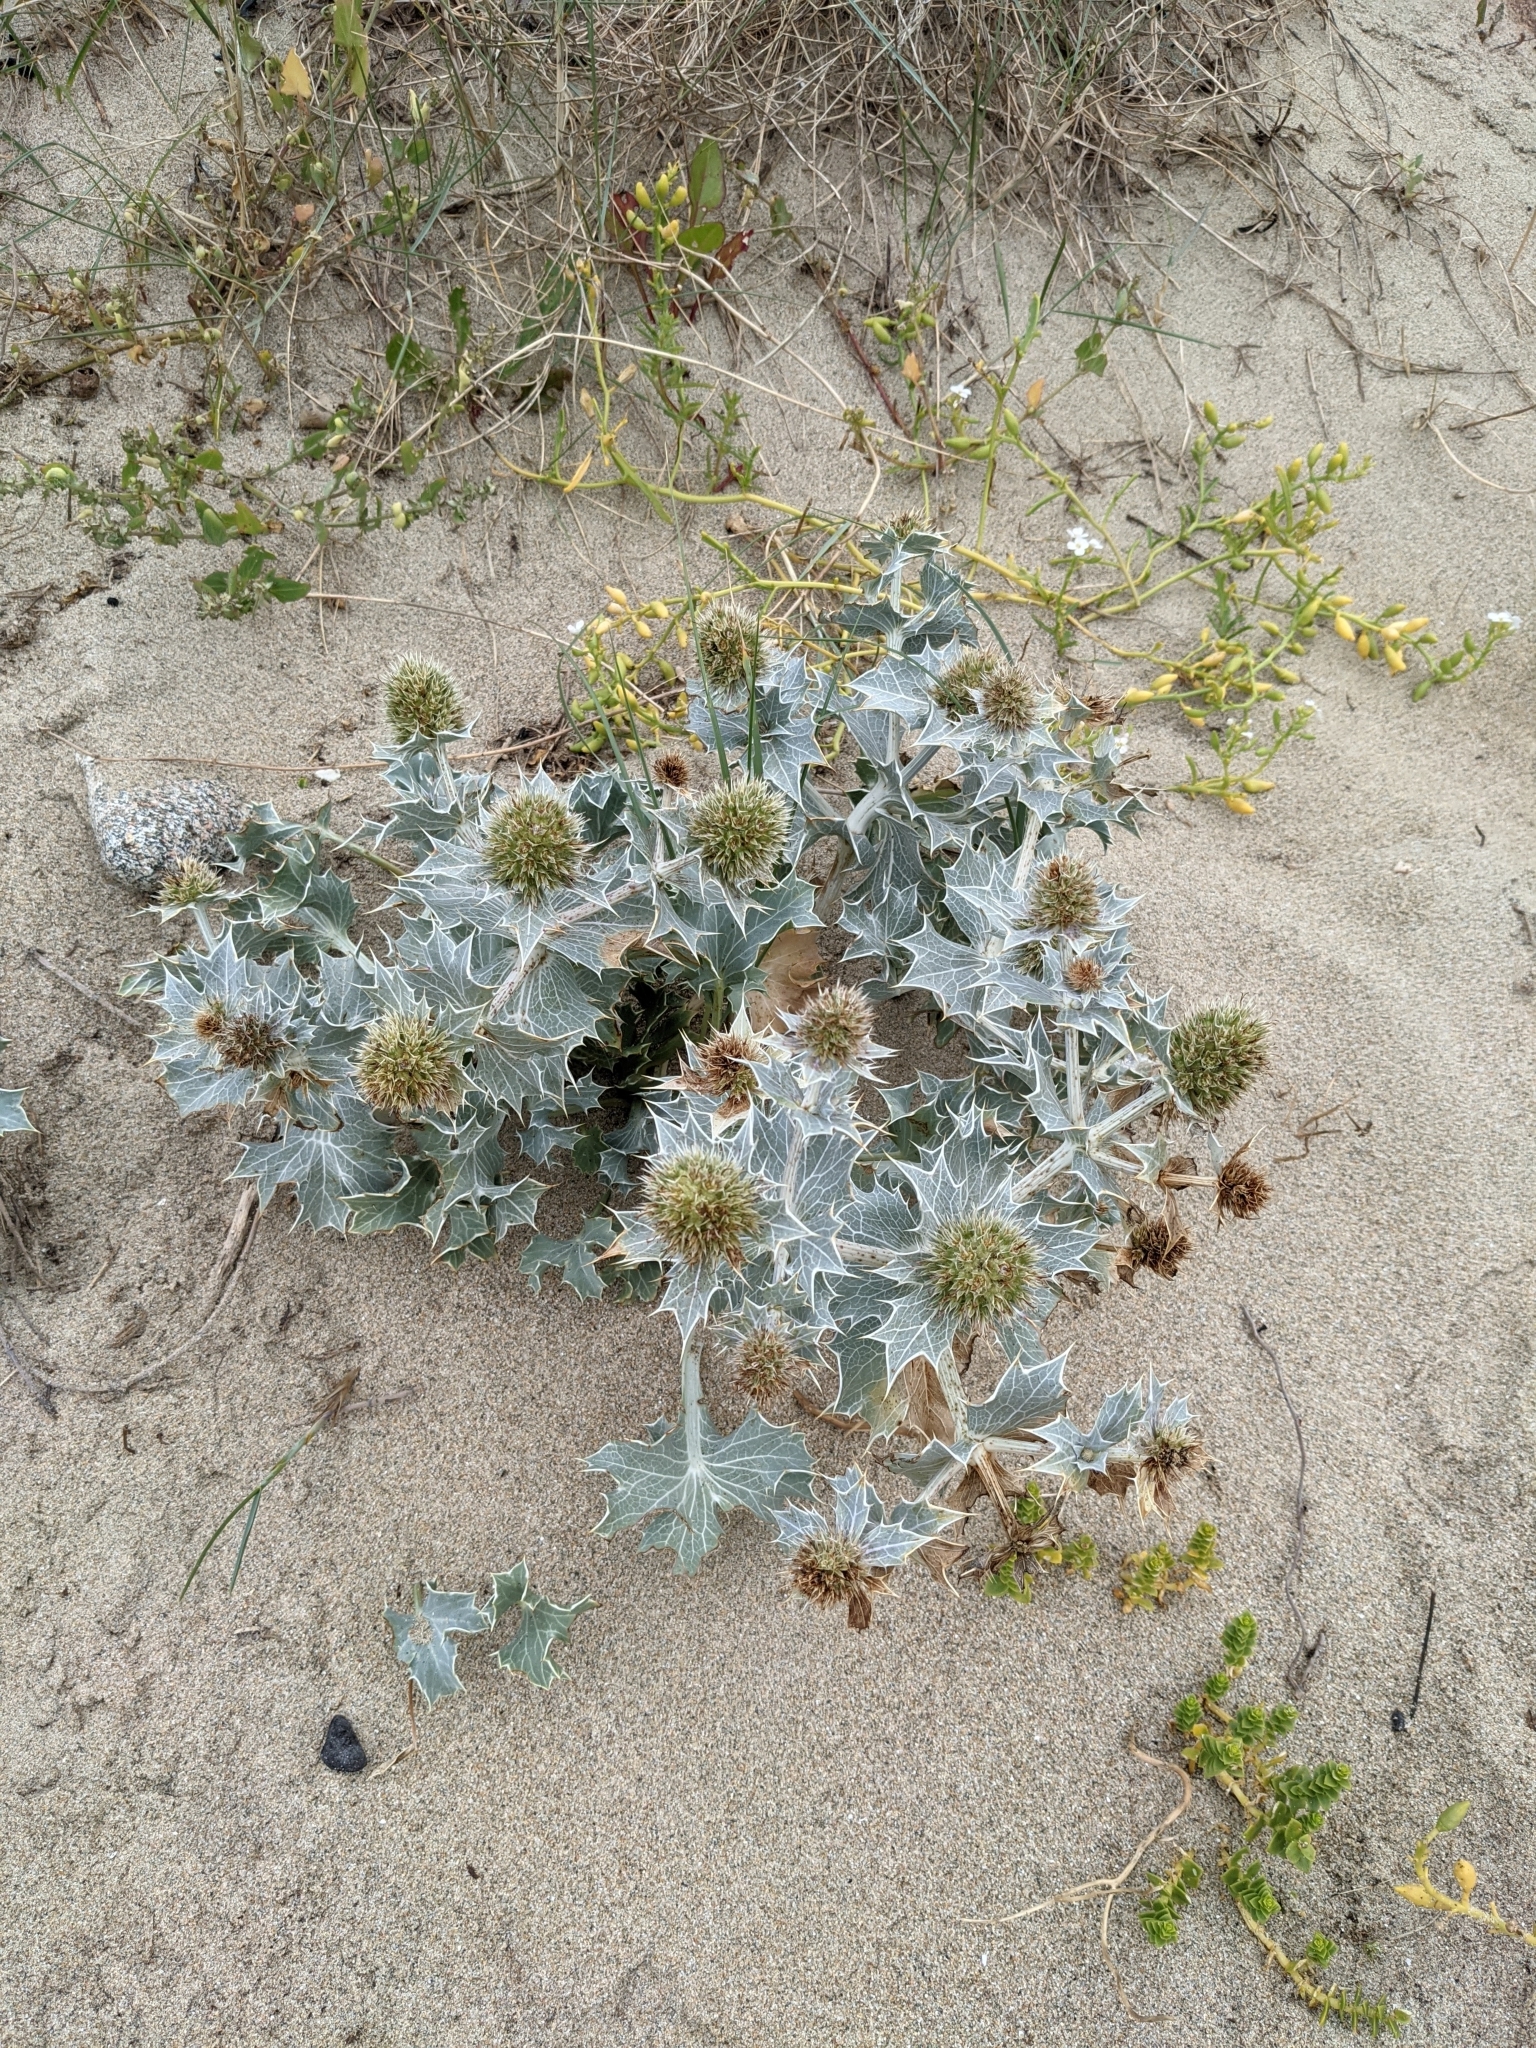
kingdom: Plantae
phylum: Tracheophyta
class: Magnoliopsida
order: Apiales
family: Apiaceae
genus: Eryngium
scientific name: Eryngium maritimum
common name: Sea-holly
